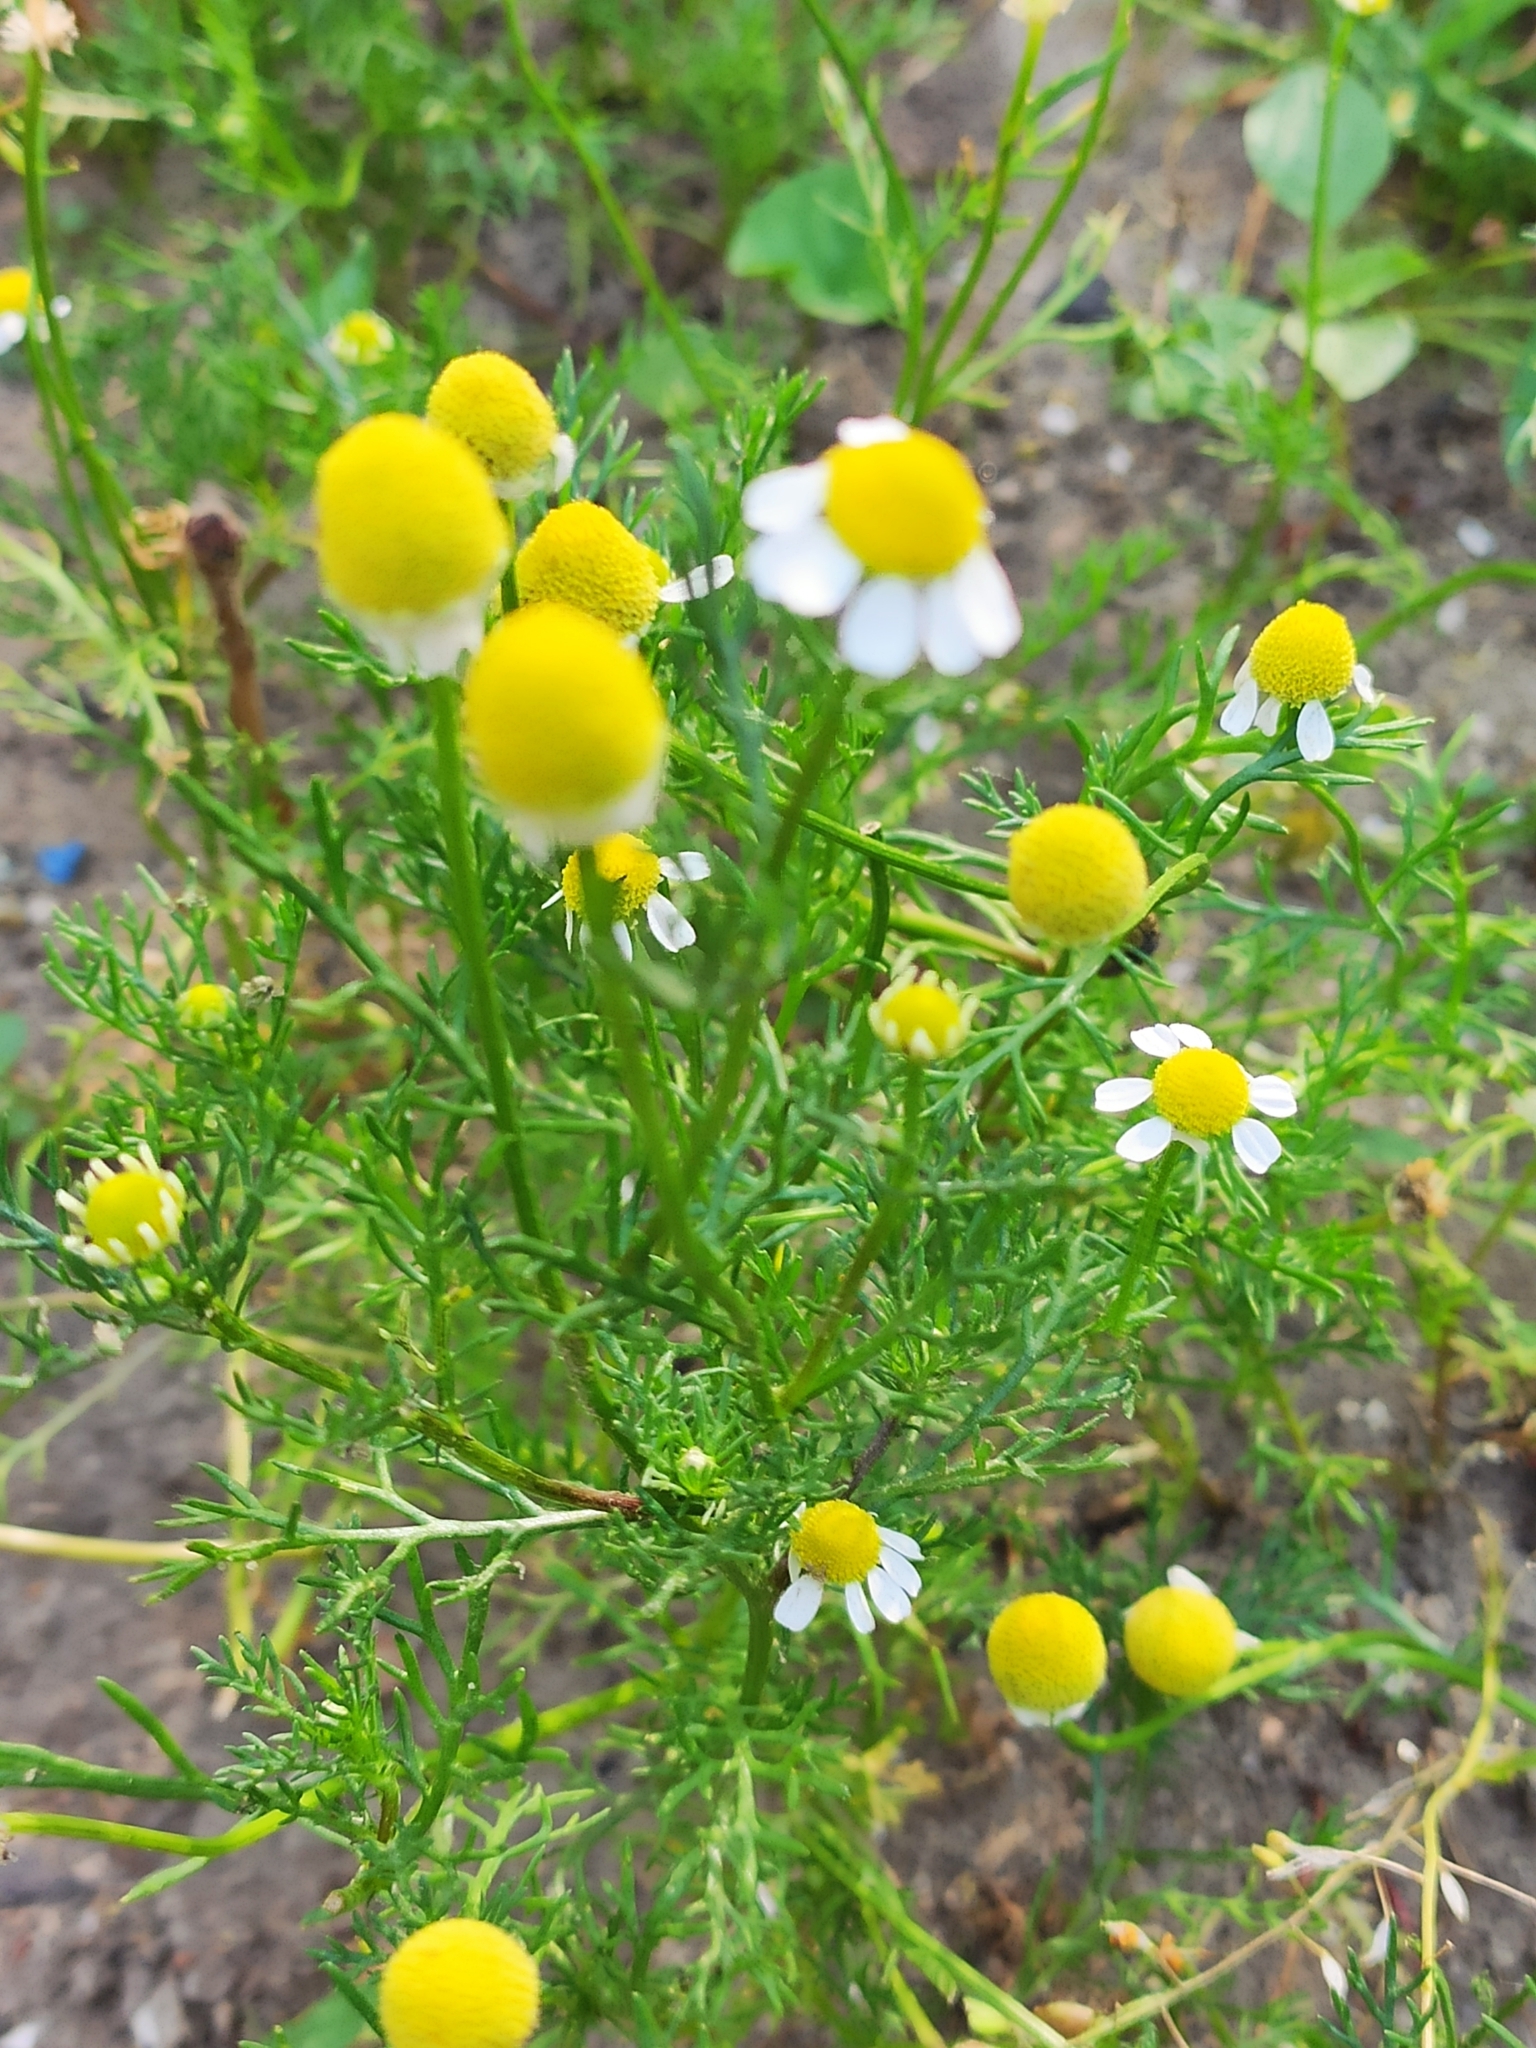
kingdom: Plantae
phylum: Tracheophyta
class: Magnoliopsida
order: Asterales
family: Asteraceae
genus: Matricaria
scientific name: Matricaria chamomilla
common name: Scented mayweed
